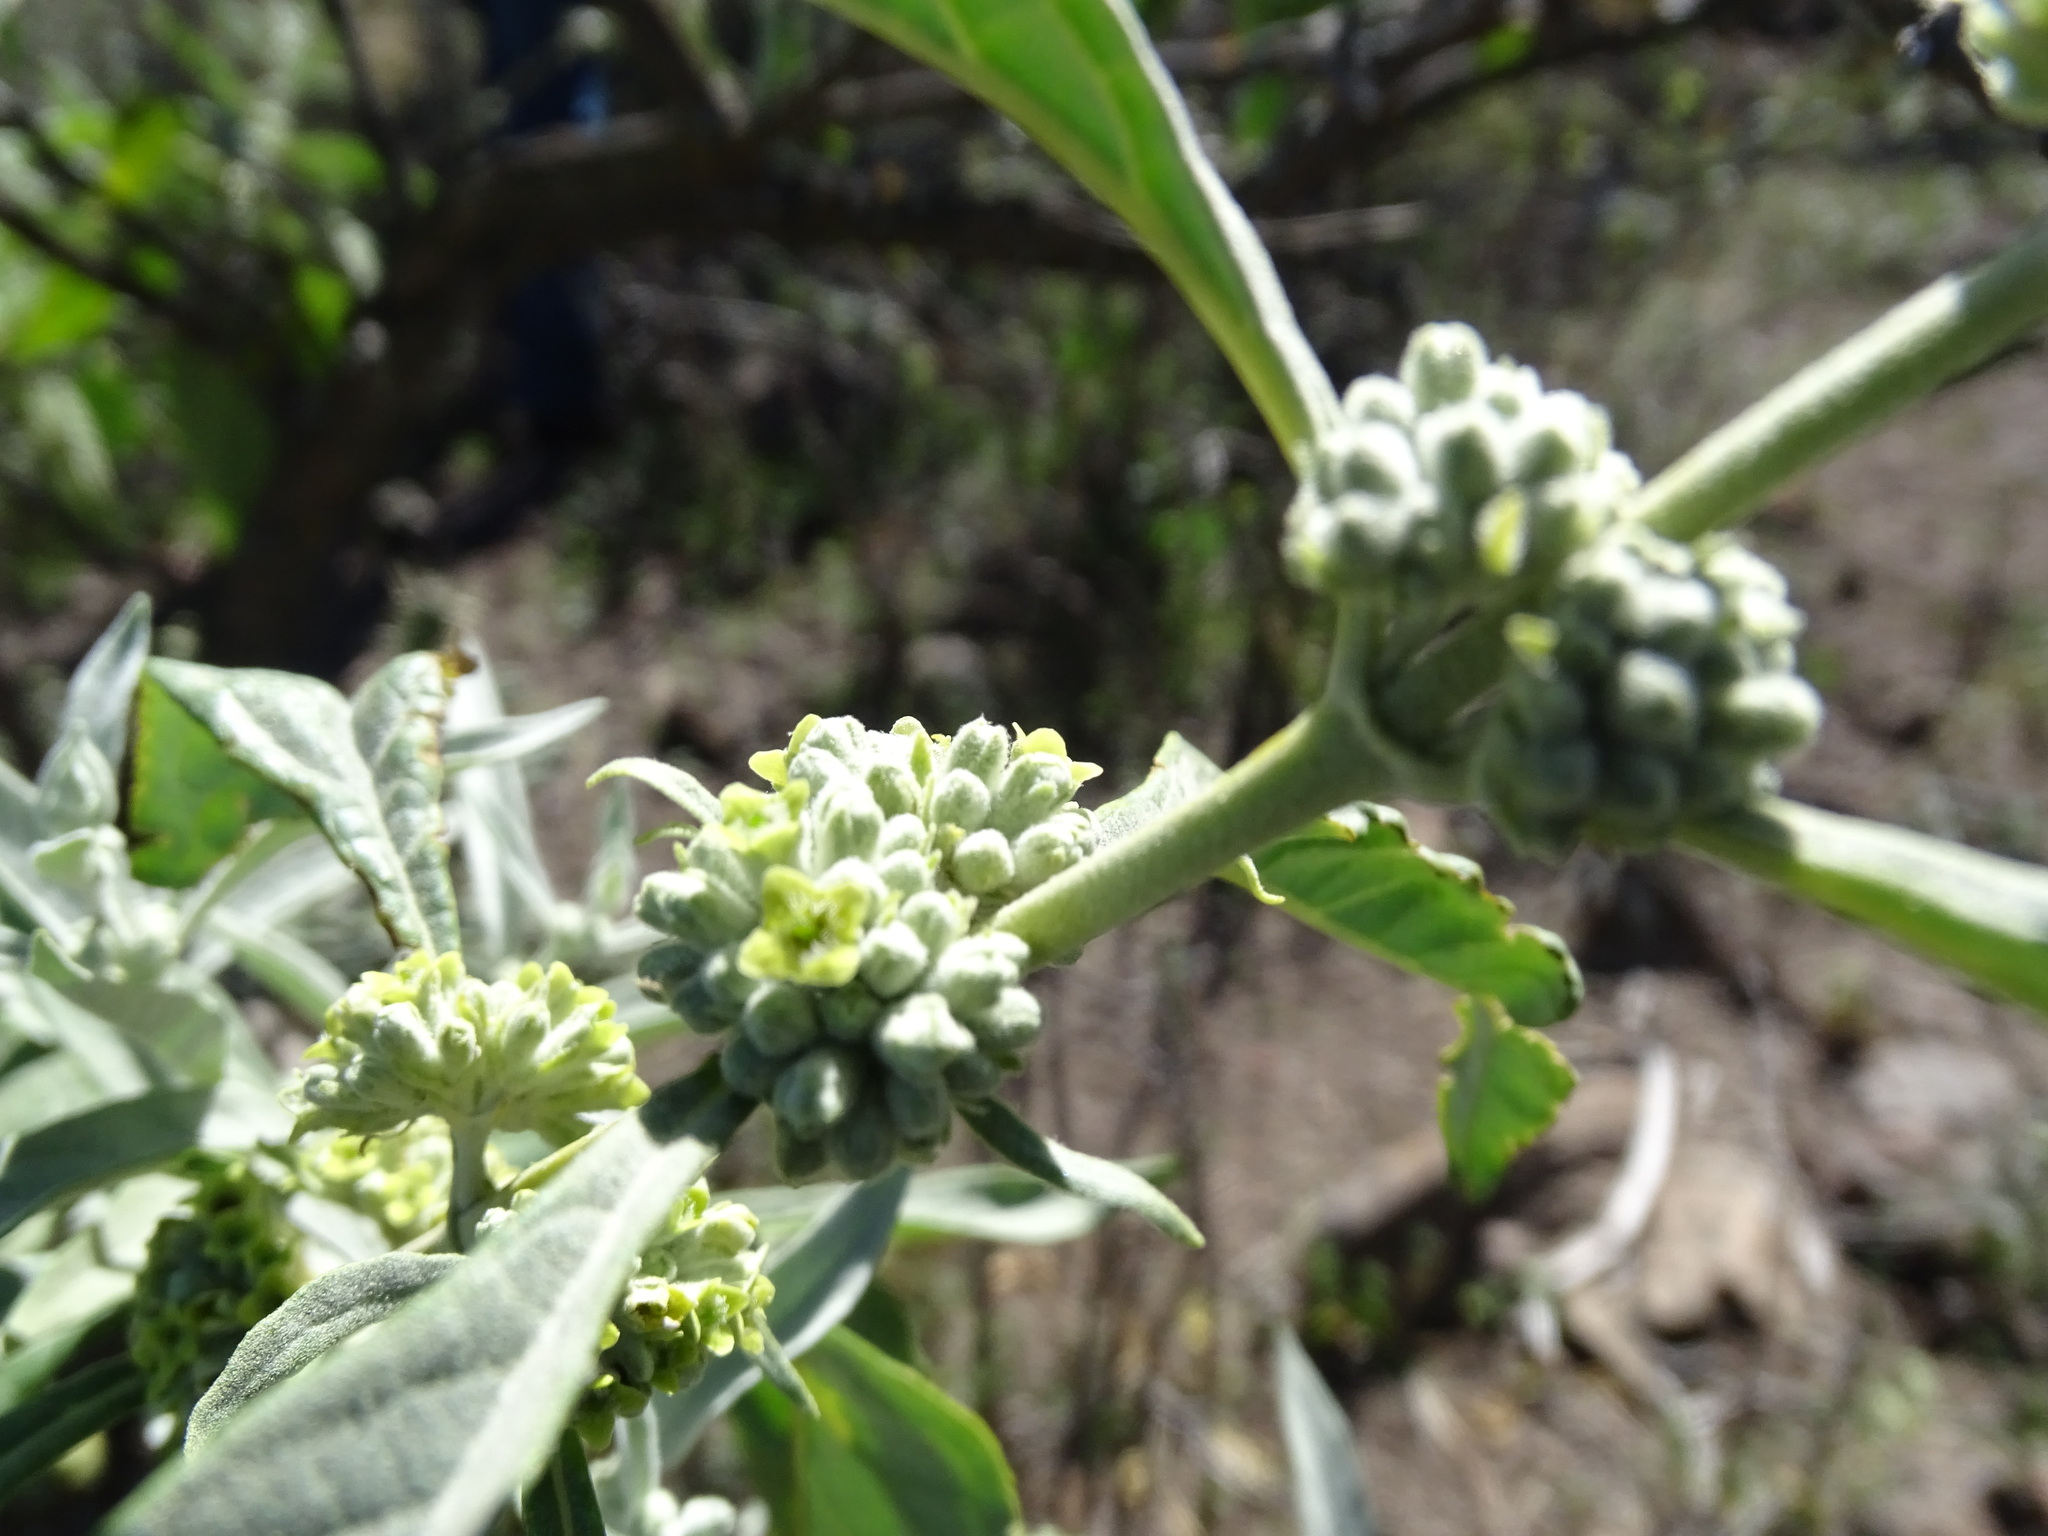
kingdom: Plantae
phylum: Tracheophyta
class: Magnoliopsida
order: Lamiales
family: Scrophulariaceae
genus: Buddleja
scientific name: Buddleja sessiliflora
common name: Rio grande butterfly-bush
